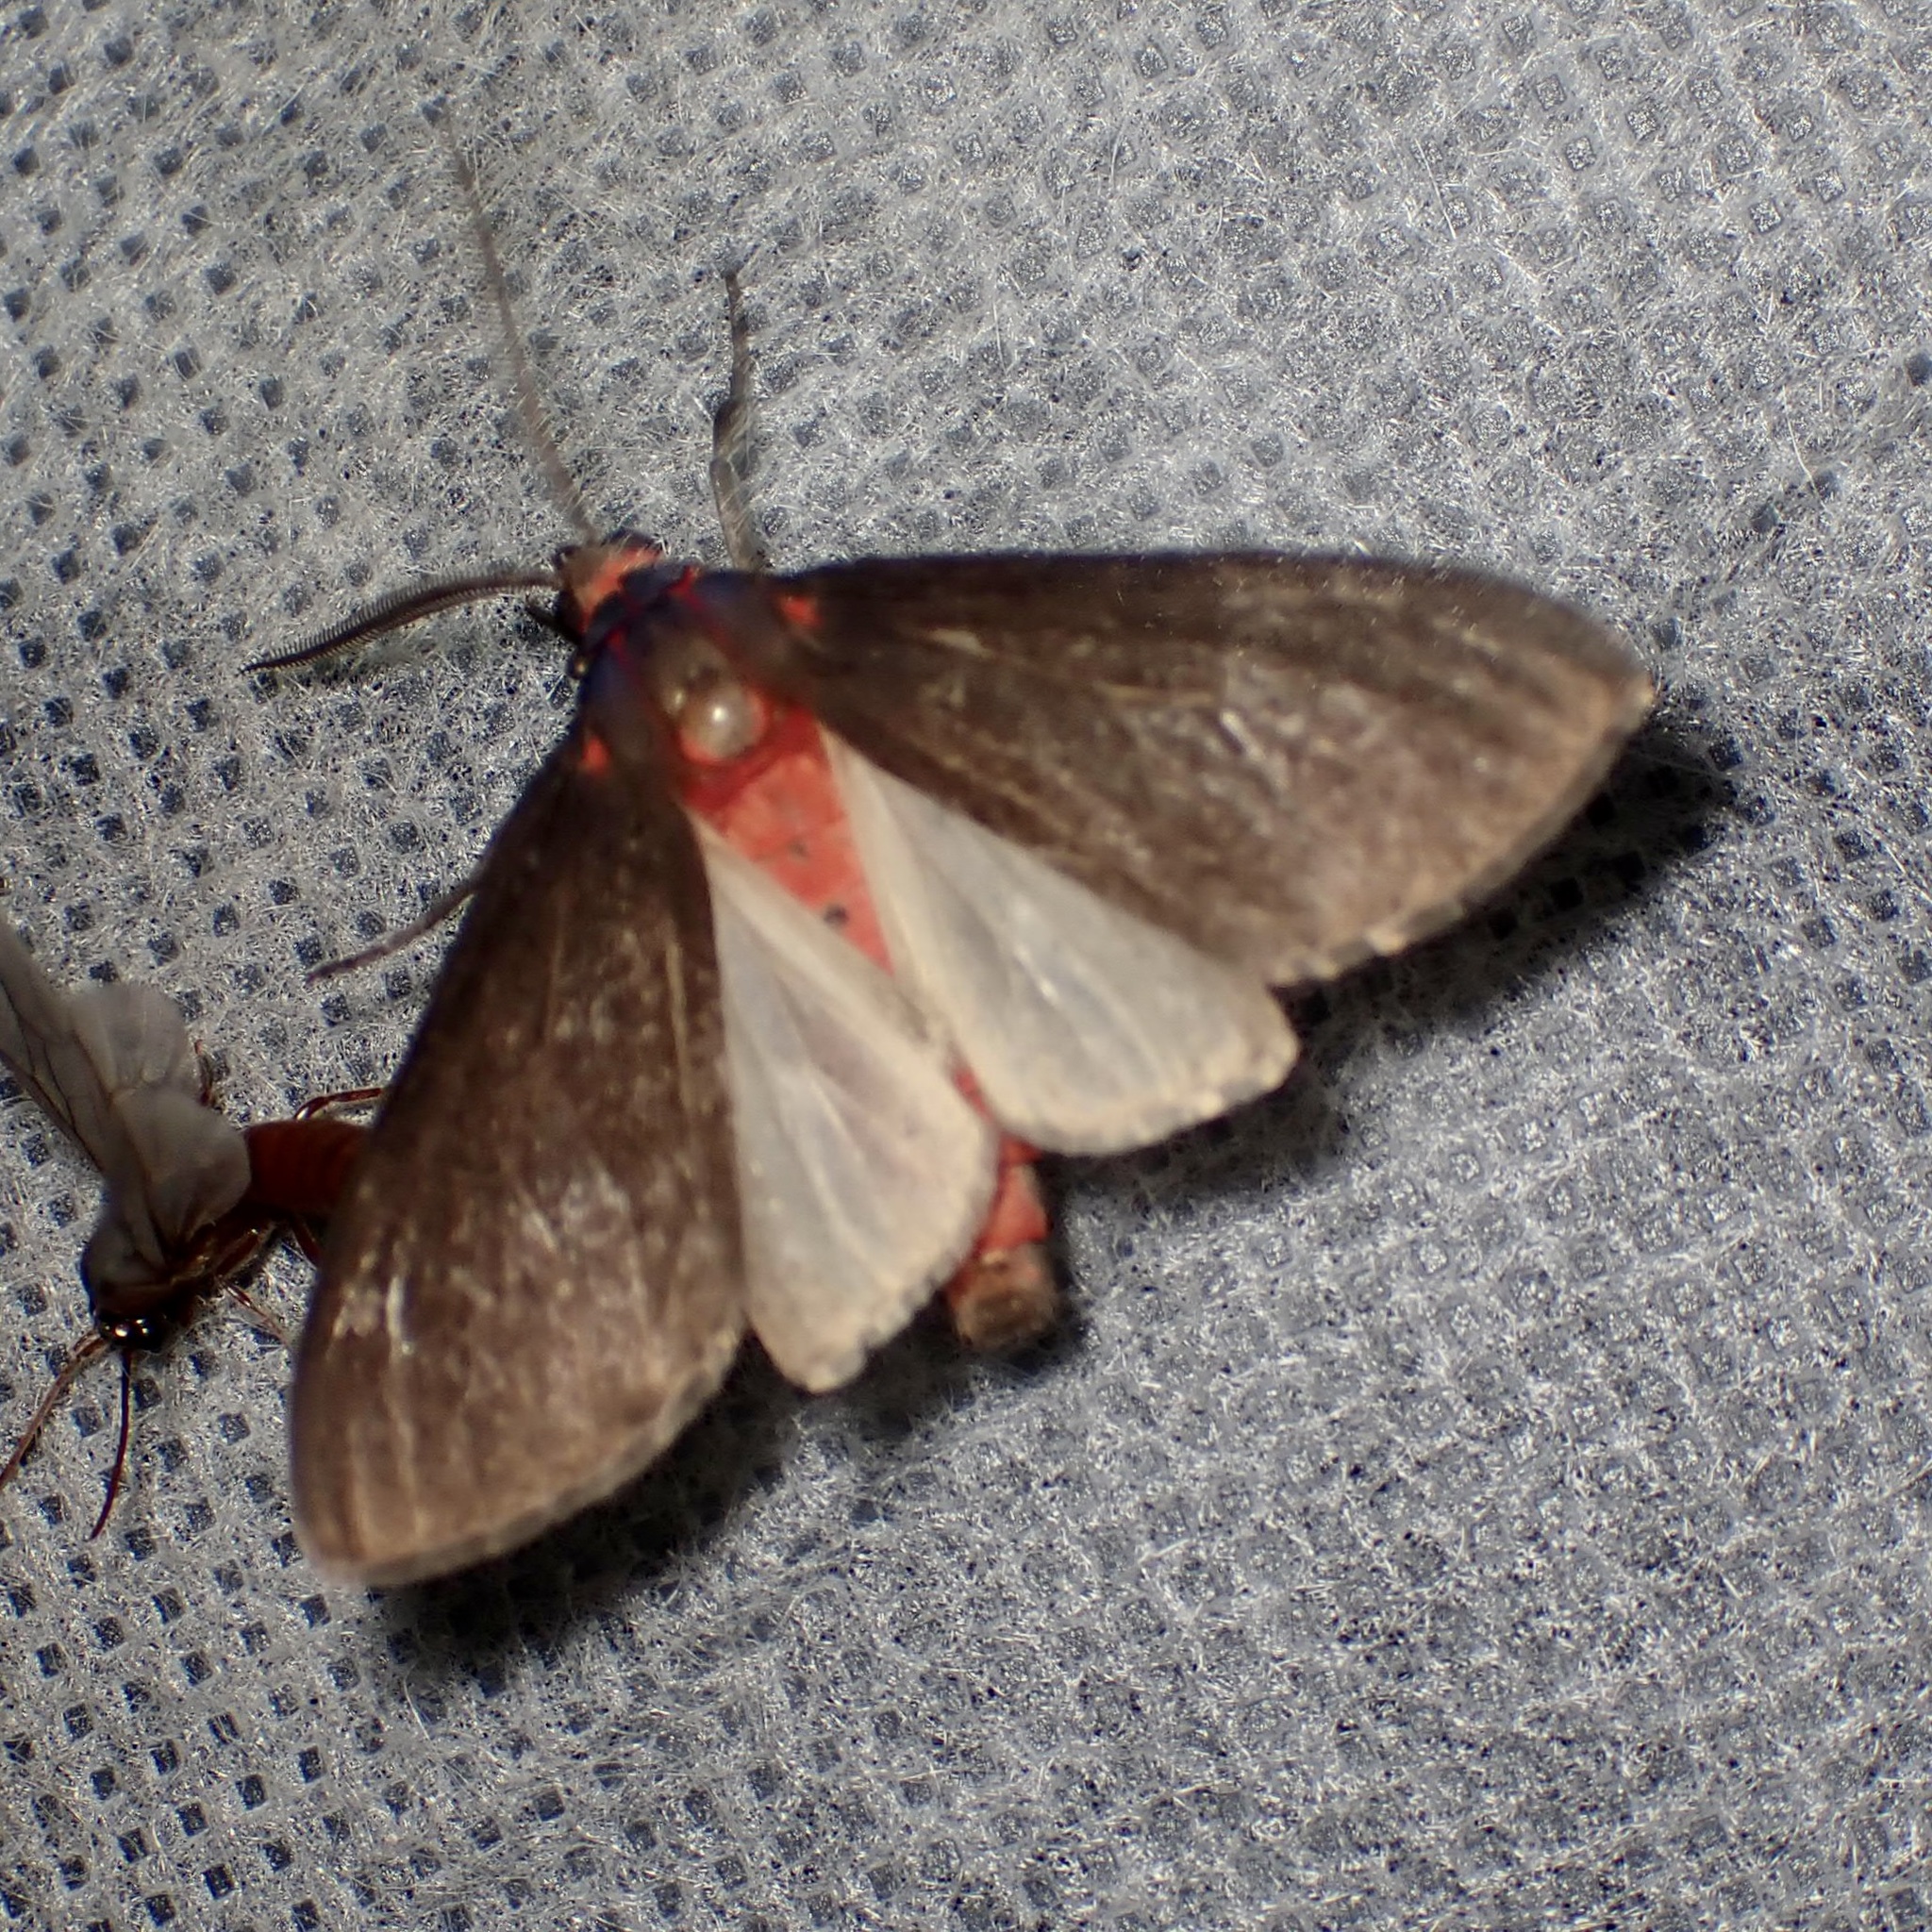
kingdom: Animalia
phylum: Arthropoda
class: Insecta
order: Lepidoptera
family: Erebidae
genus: Euchaetes
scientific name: Euchaetes fusca
